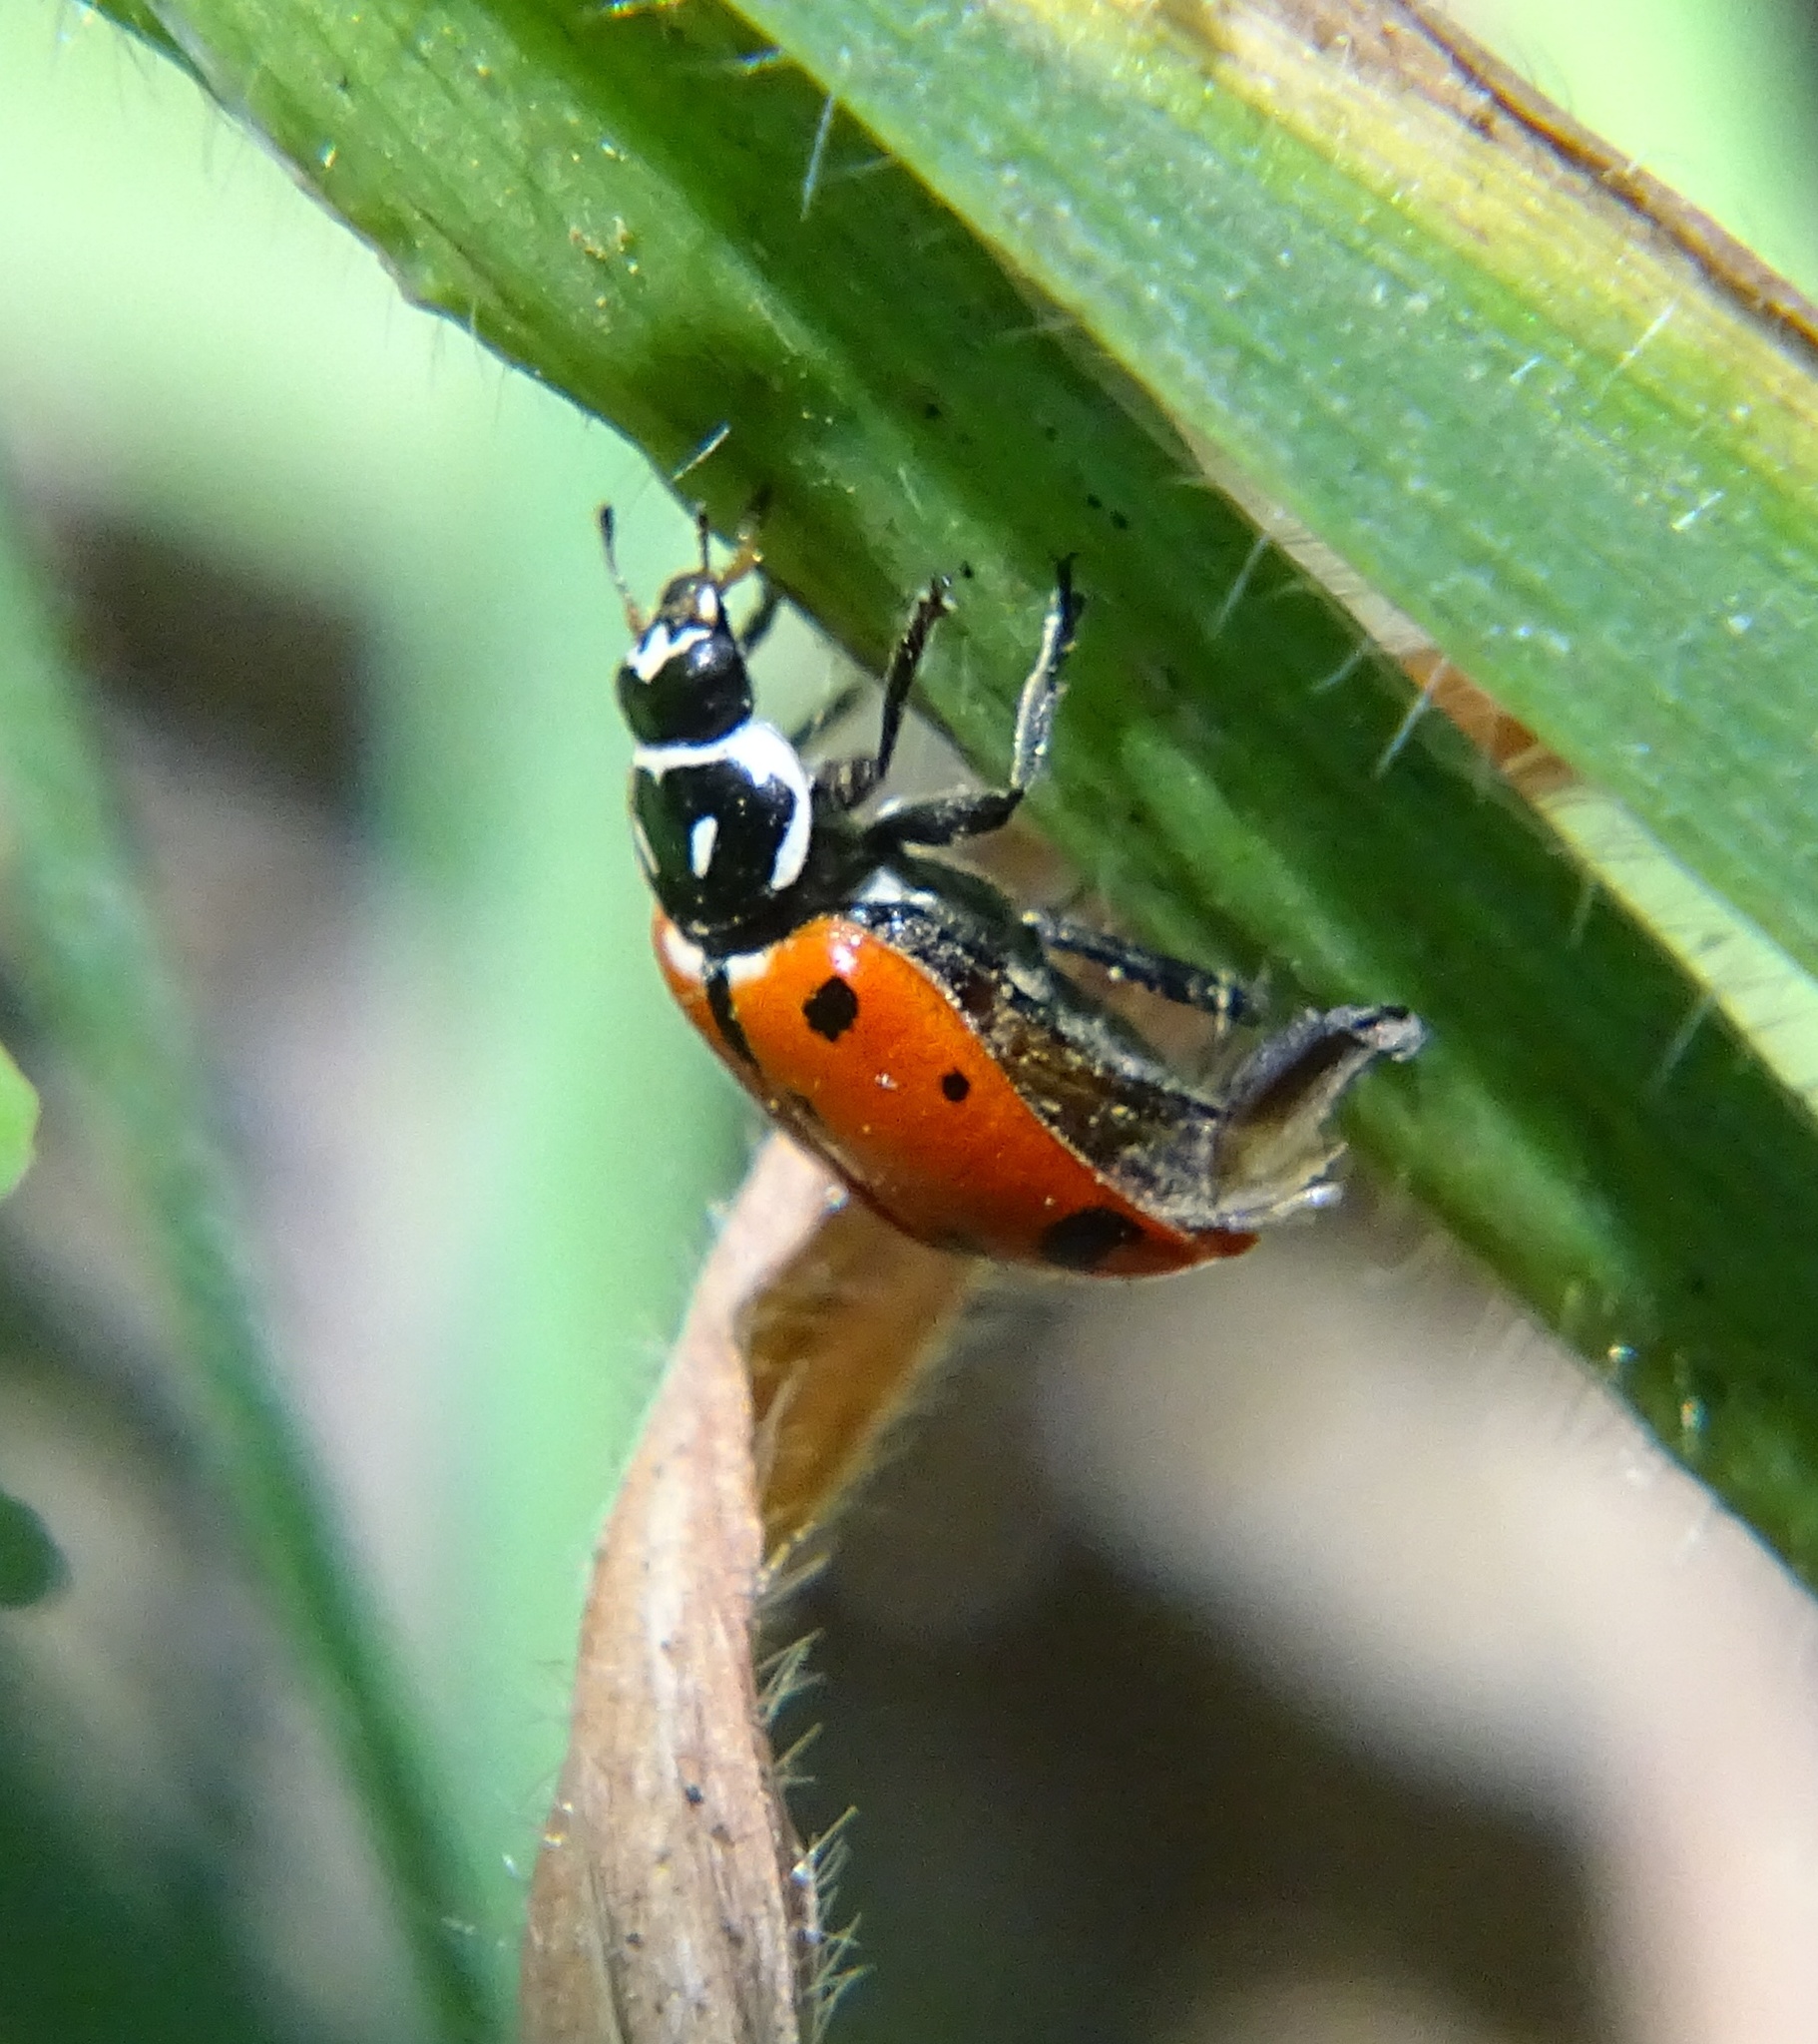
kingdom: Animalia
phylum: Arthropoda
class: Insecta
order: Coleoptera
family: Coccinellidae
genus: Hippodamia
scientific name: Hippodamia convergens
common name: Convergent lady beetle
